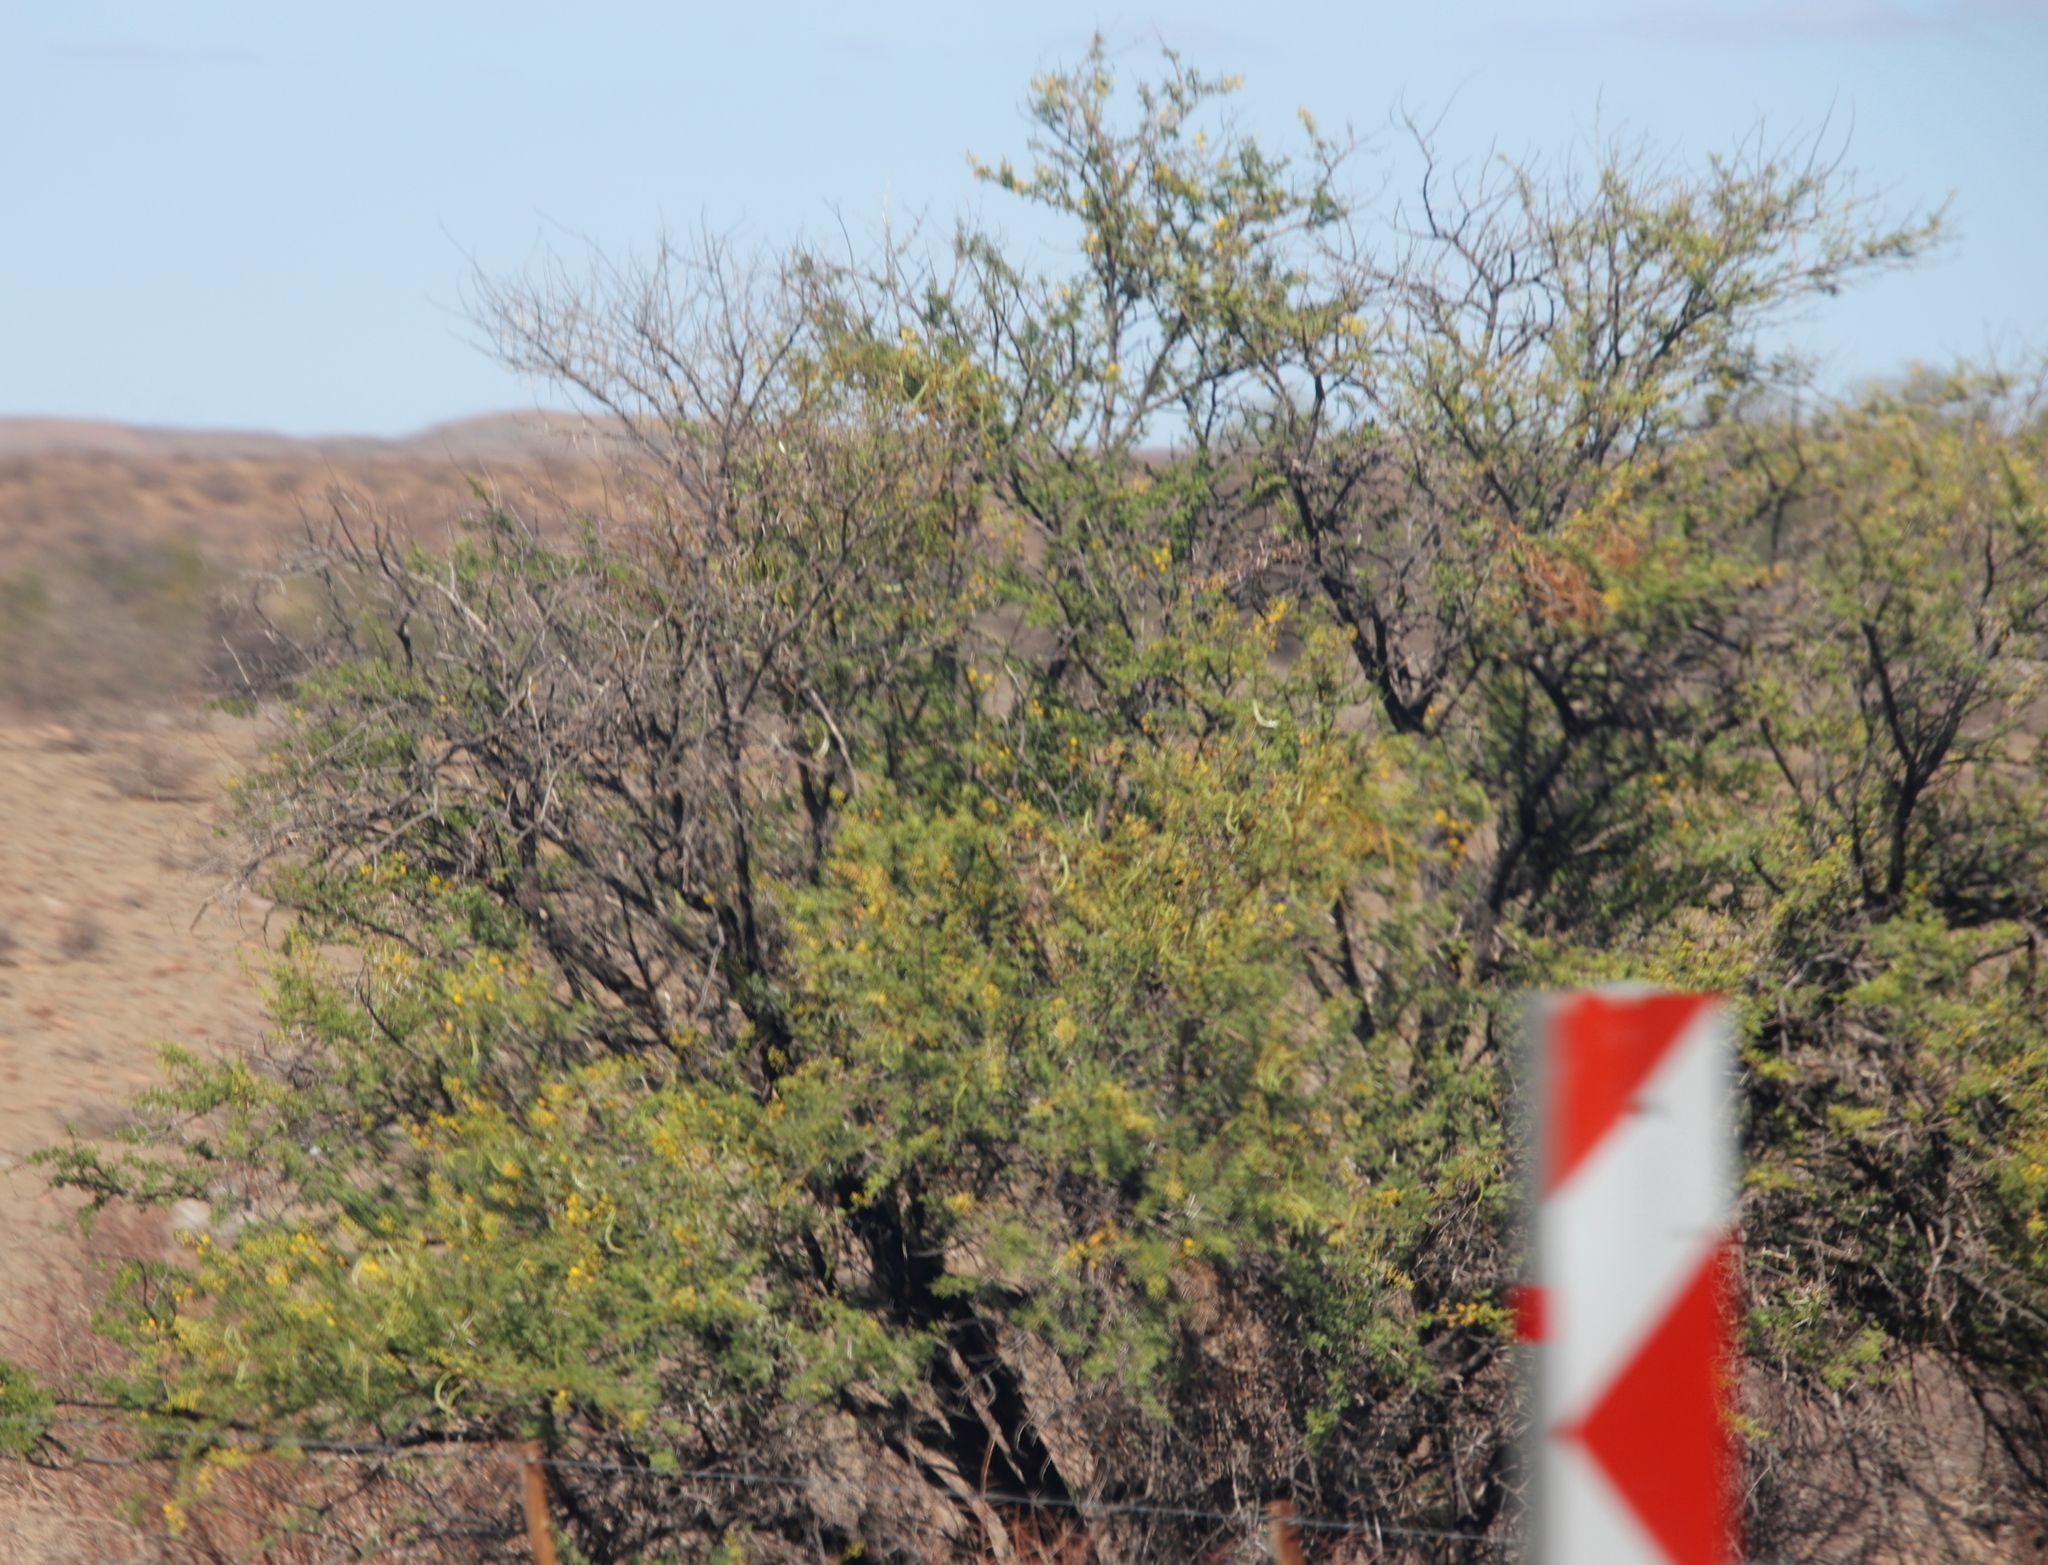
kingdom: Plantae
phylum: Tracheophyta
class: Magnoliopsida
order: Fabales
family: Fabaceae
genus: Vachellia
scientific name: Vachellia karroo
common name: Sweet thorn
